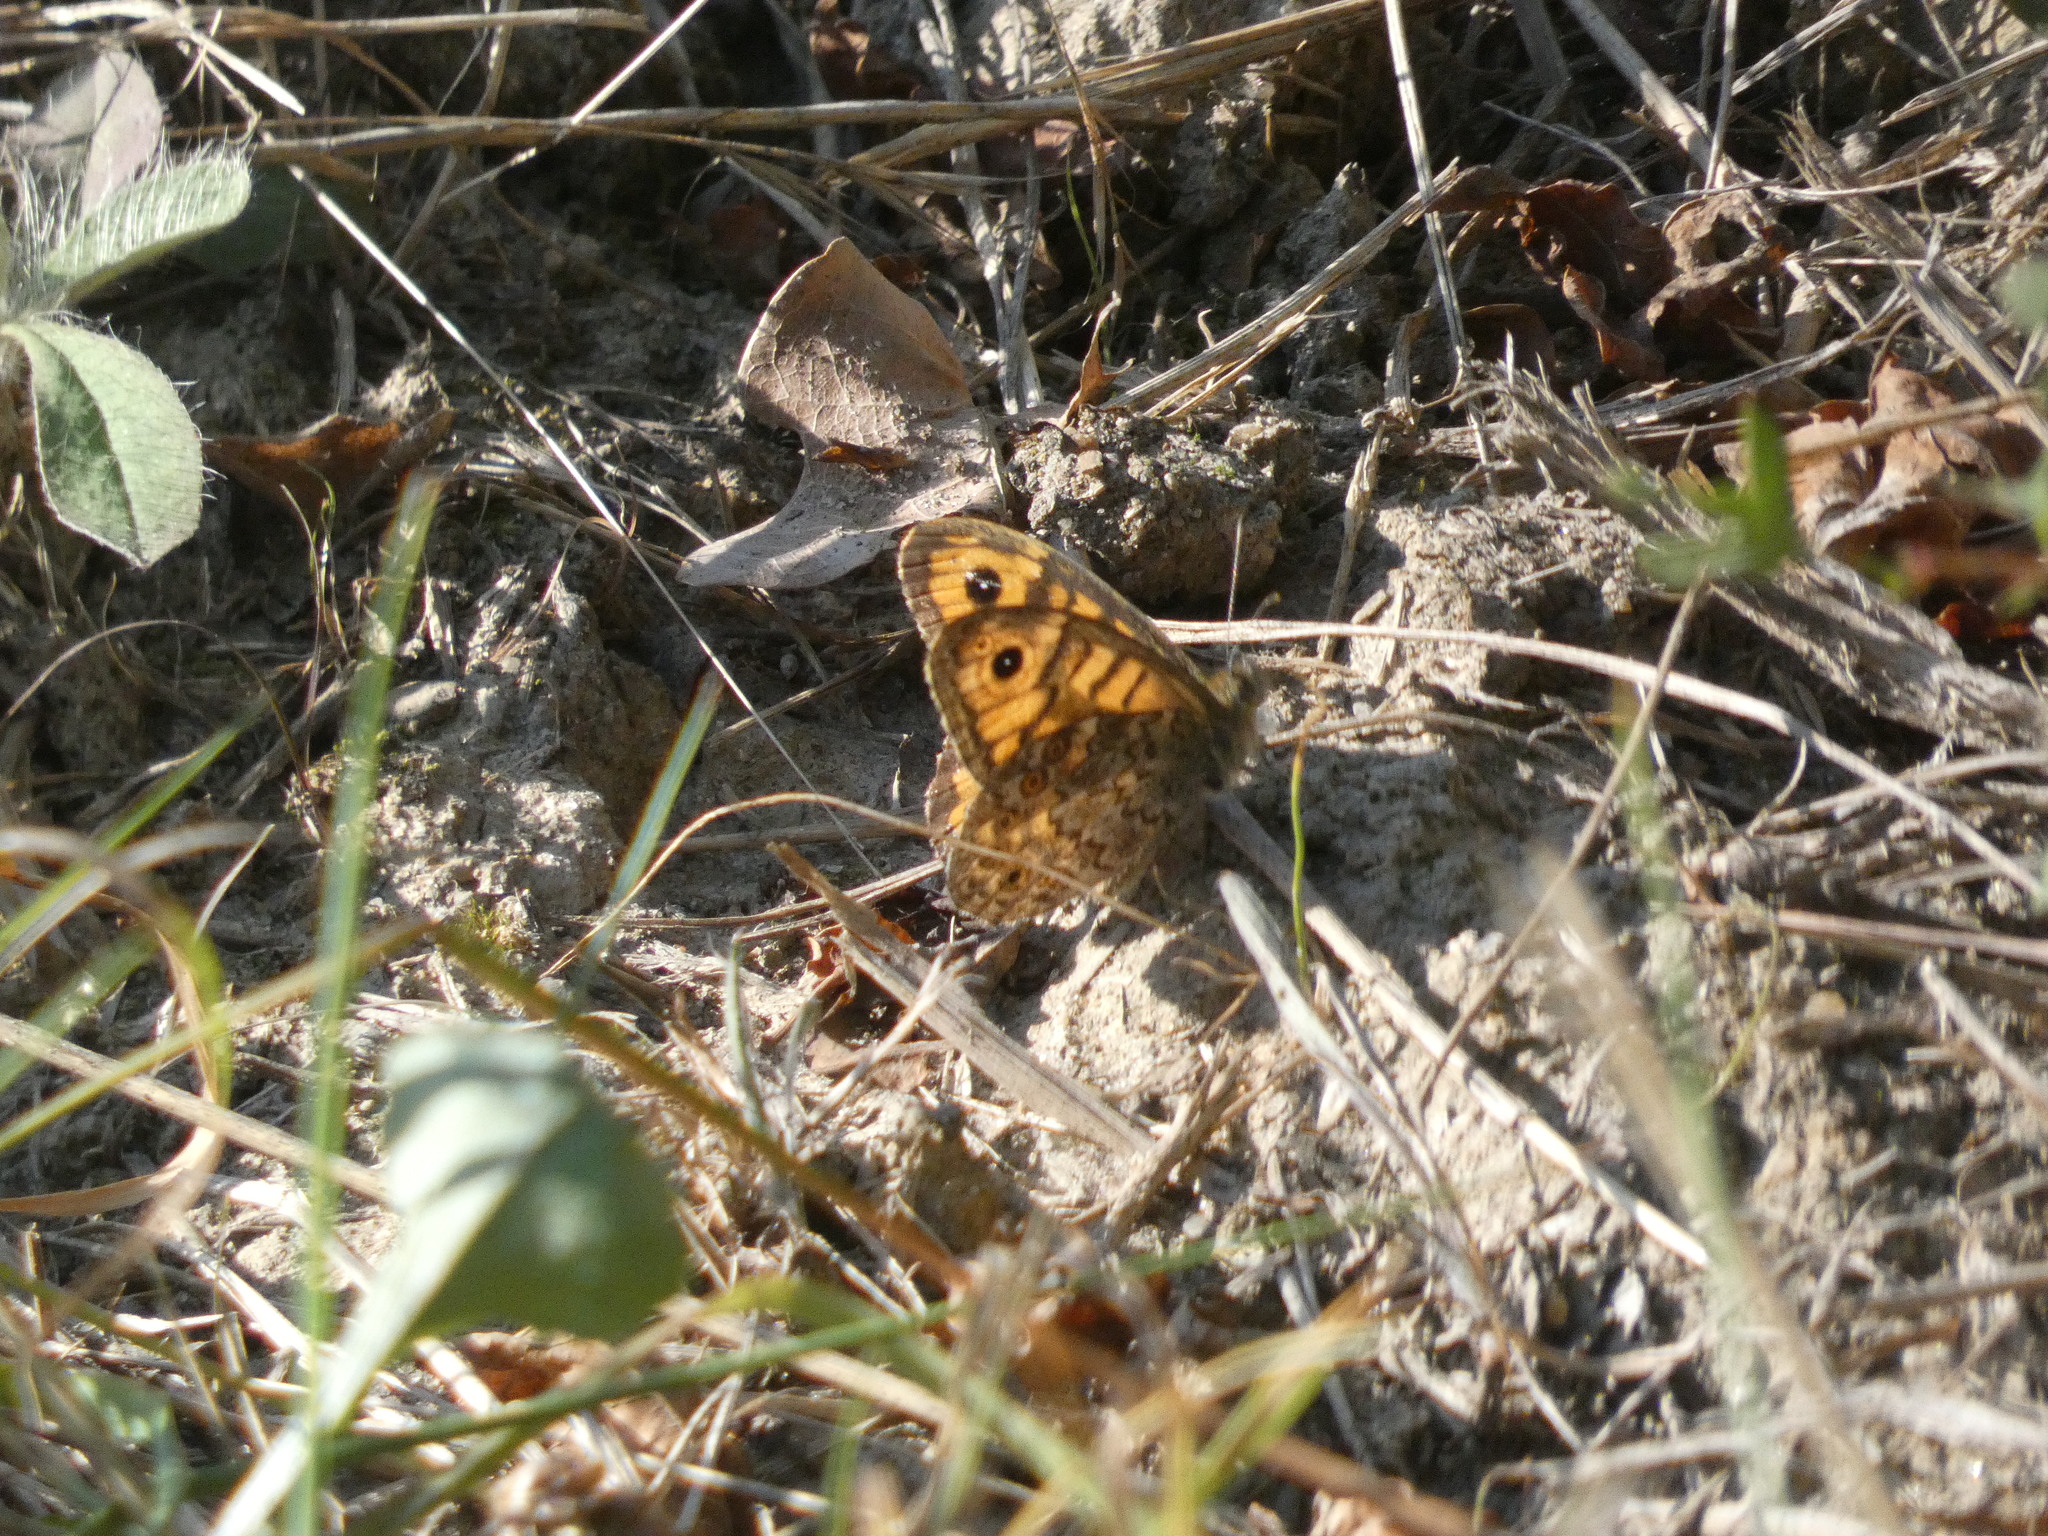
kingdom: Animalia
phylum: Arthropoda
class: Insecta
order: Lepidoptera
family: Nymphalidae
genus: Pararge
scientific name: Pararge Lasiommata megera
